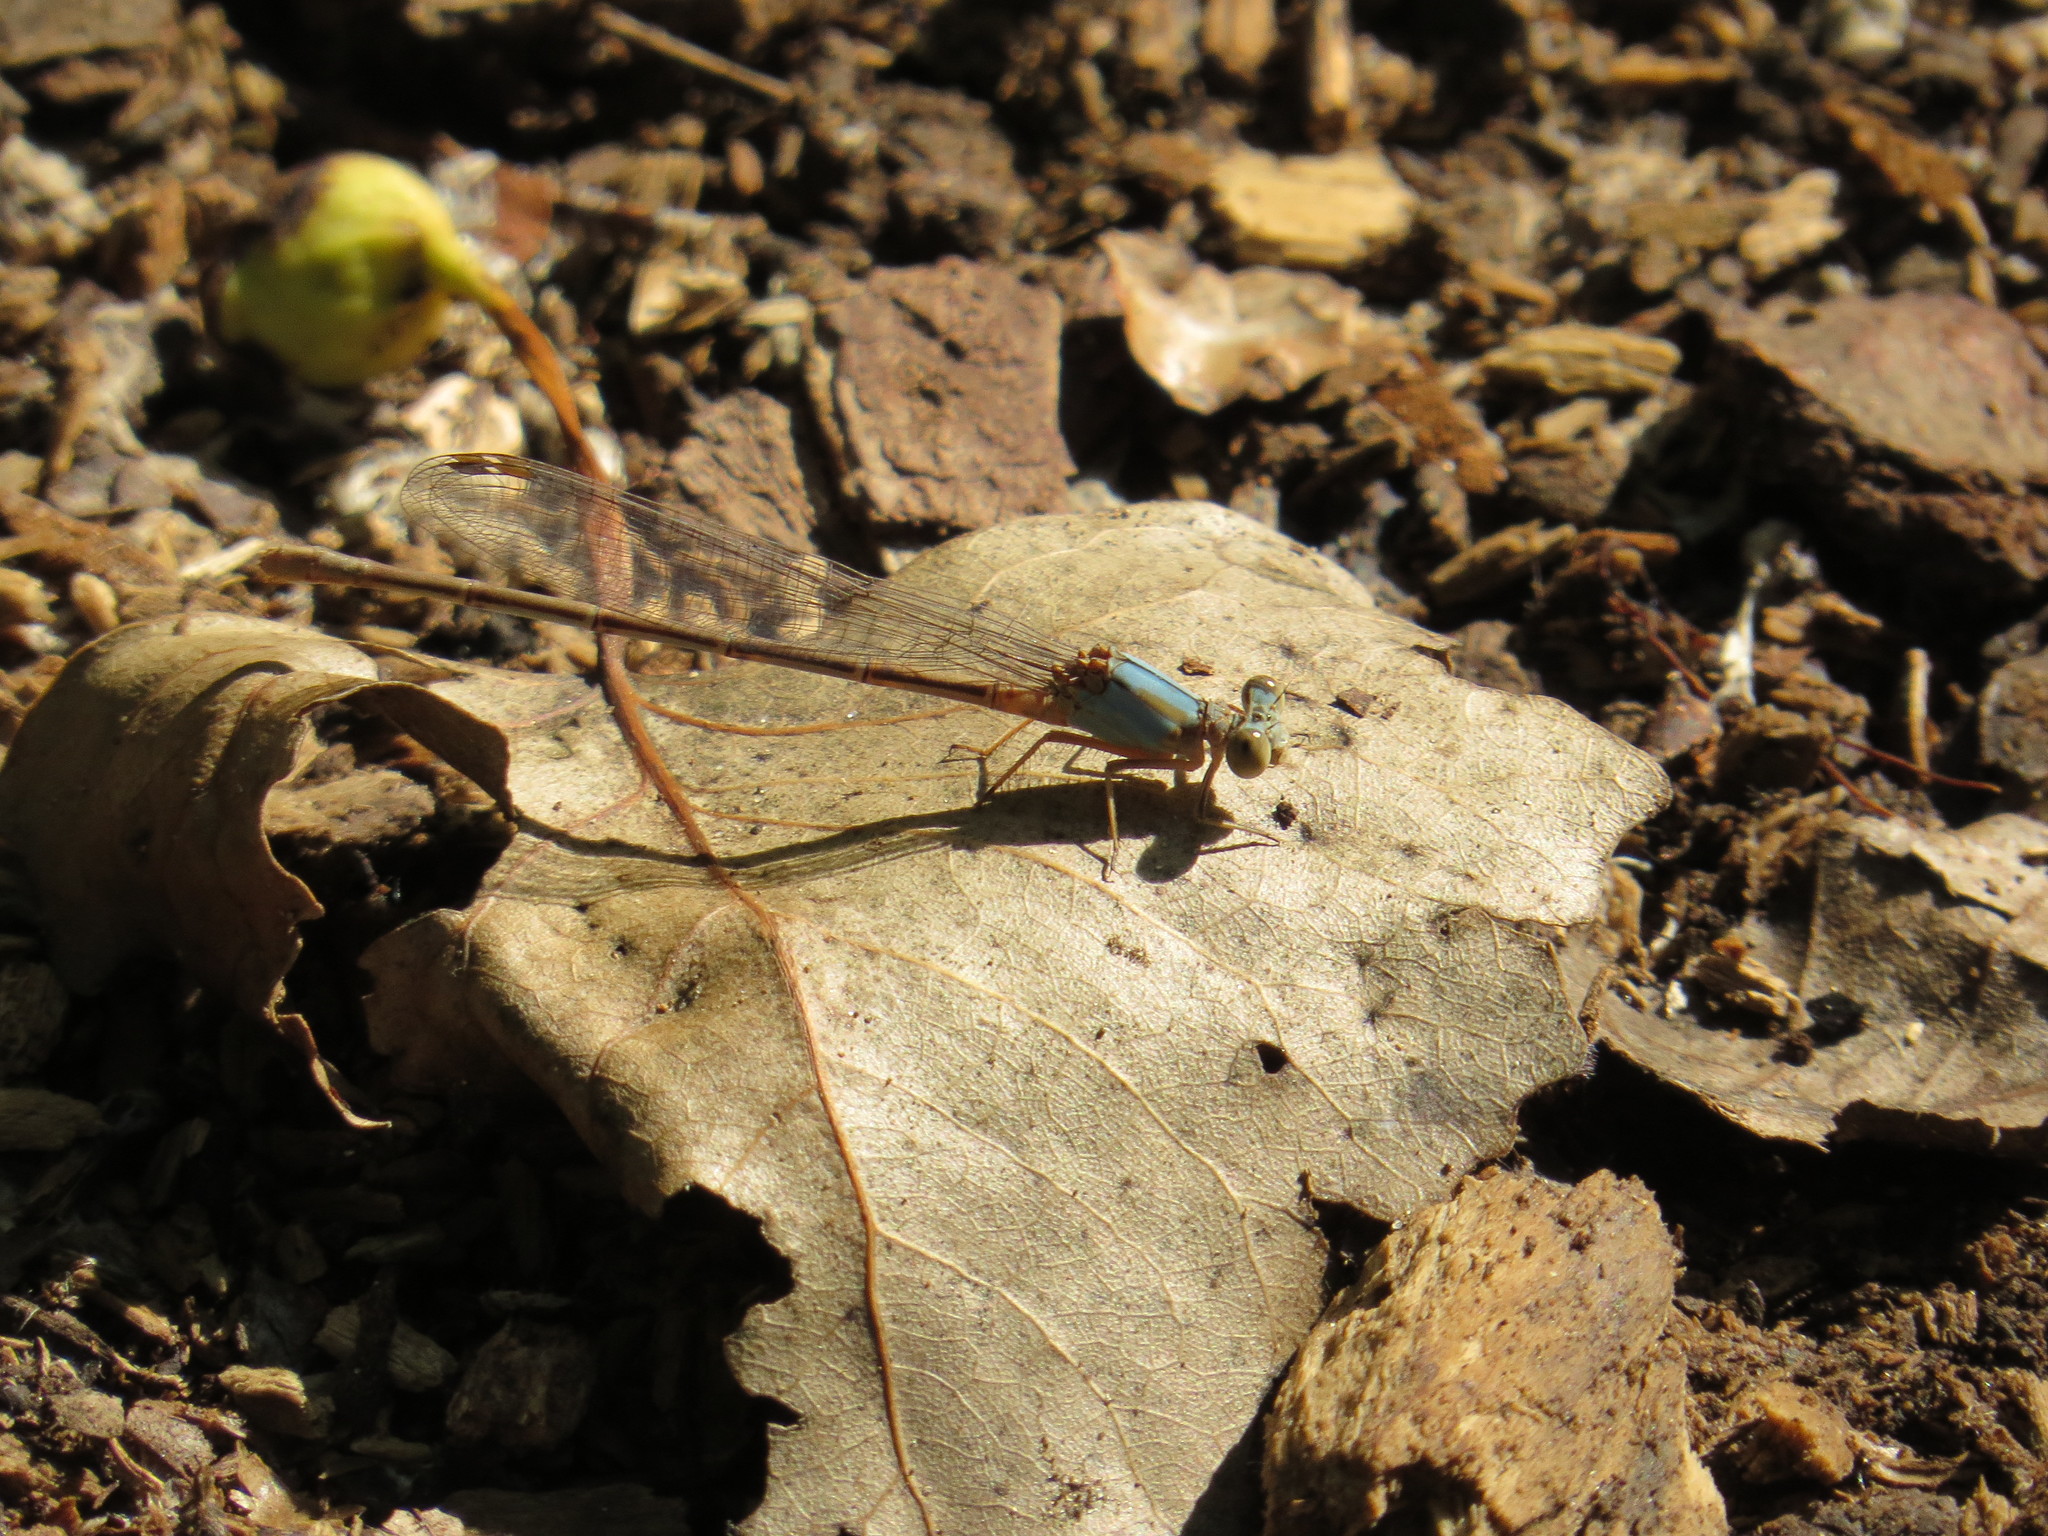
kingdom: Animalia
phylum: Arthropoda
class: Insecta
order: Odonata
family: Coenagrionidae
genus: Argia
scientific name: Argia moesta
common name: Powdered dancer
